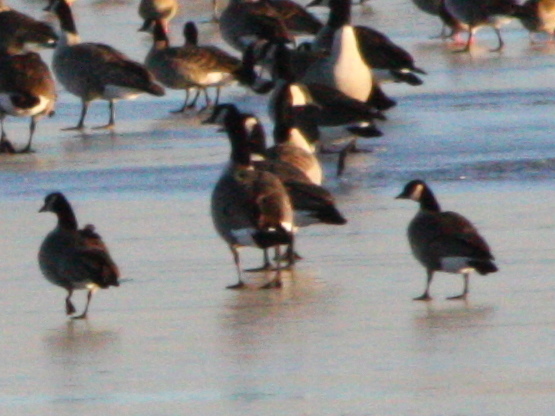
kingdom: Animalia
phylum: Chordata
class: Aves
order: Anseriformes
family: Anatidae
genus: Branta
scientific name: Branta hutchinsii
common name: Cackling goose
